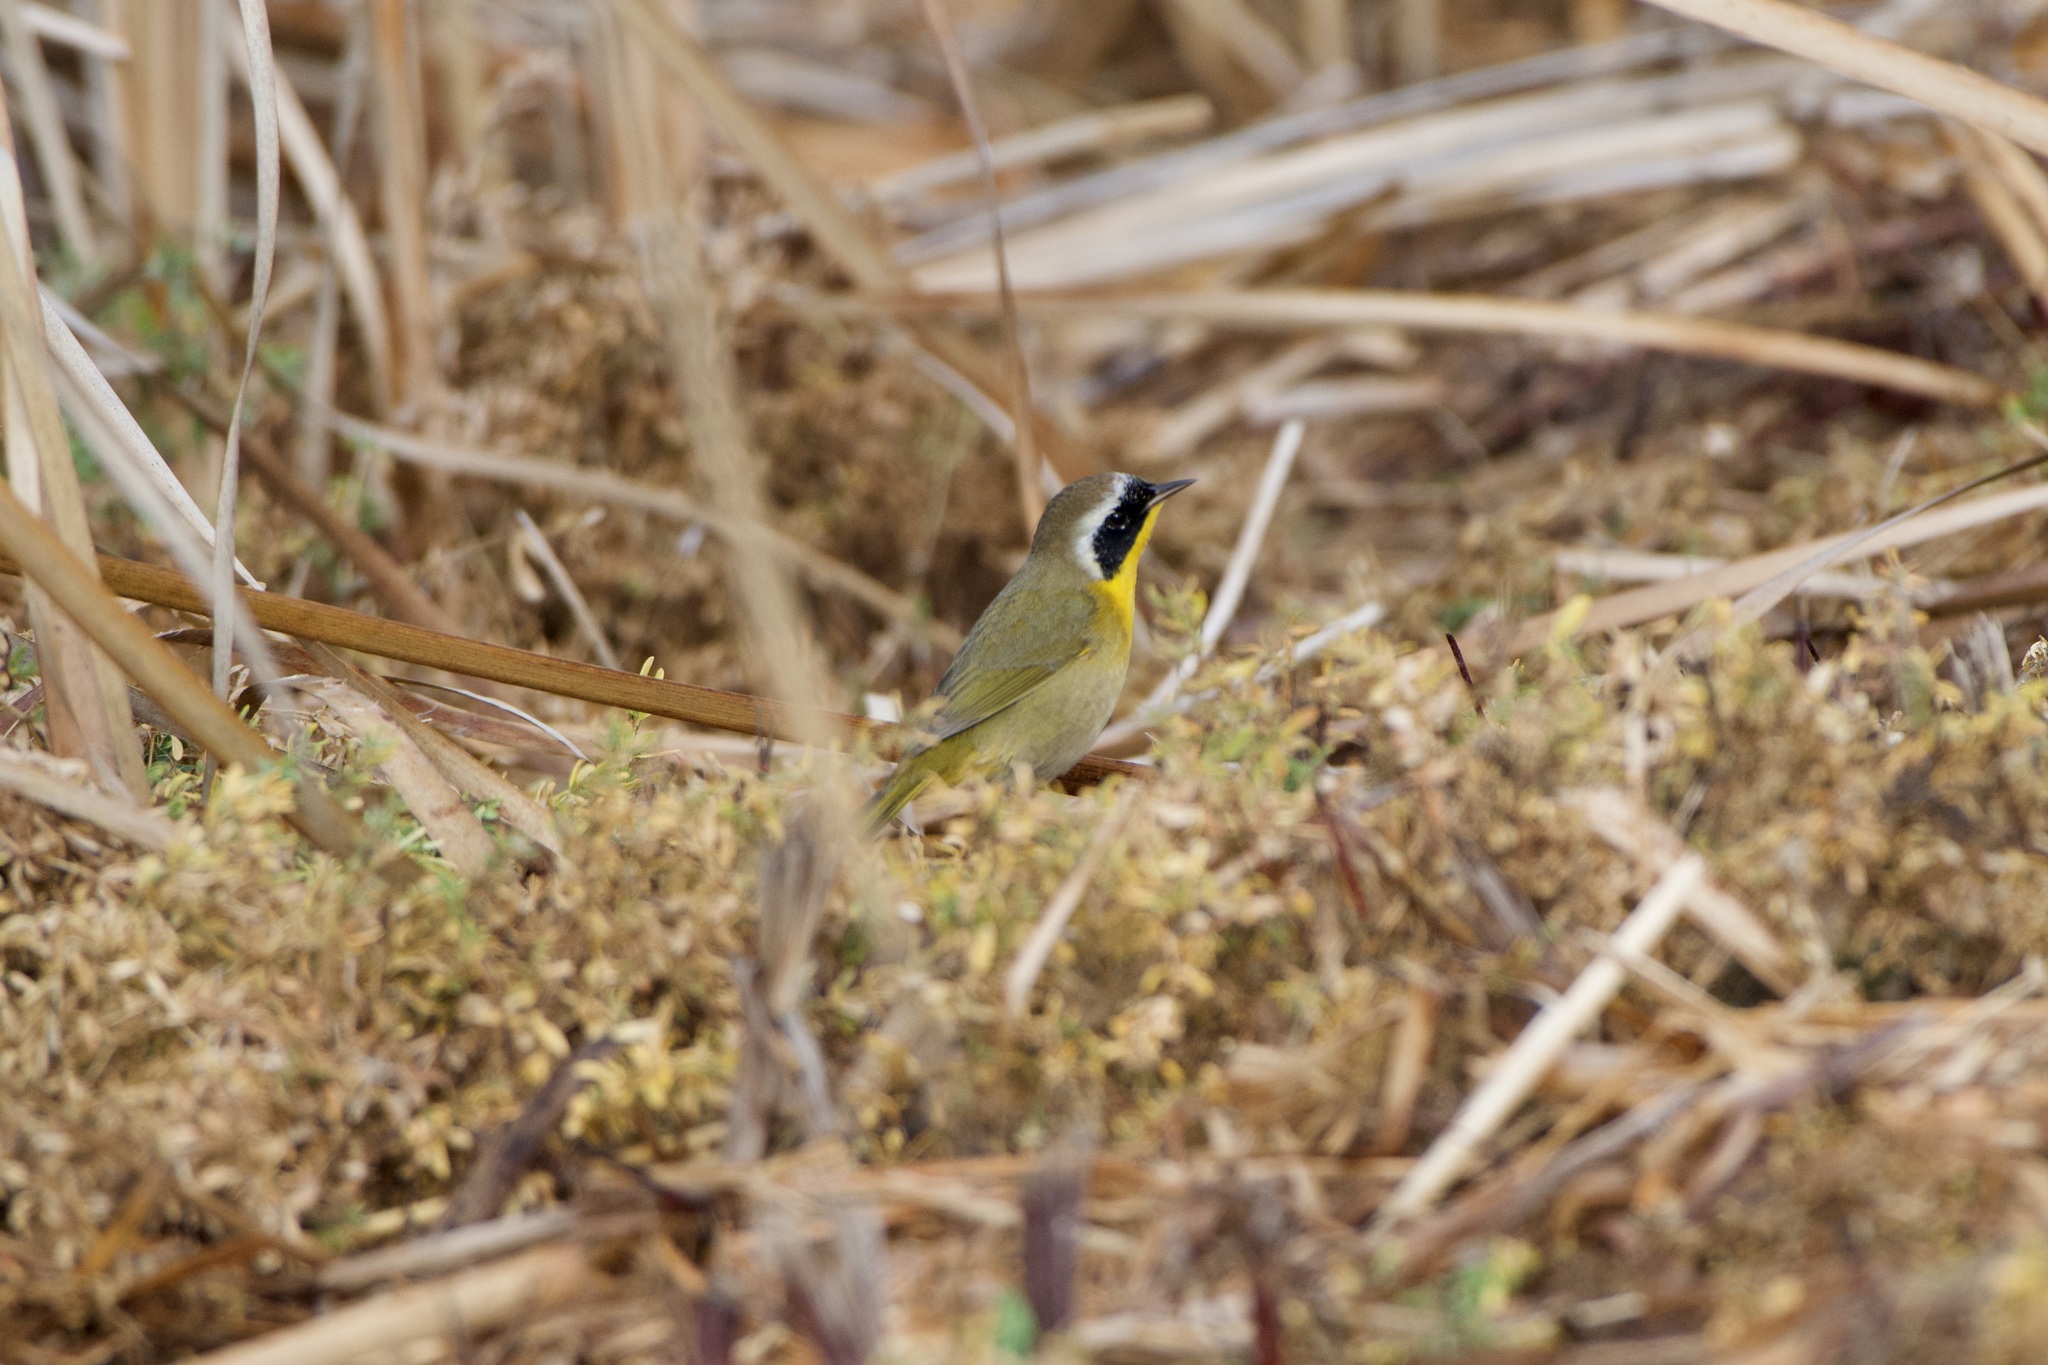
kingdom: Animalia
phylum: Chordata
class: Aves
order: Passeriformes
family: Parulidae
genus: Geothlypis
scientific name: Geothlypis trichas
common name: Common yellowthroat
